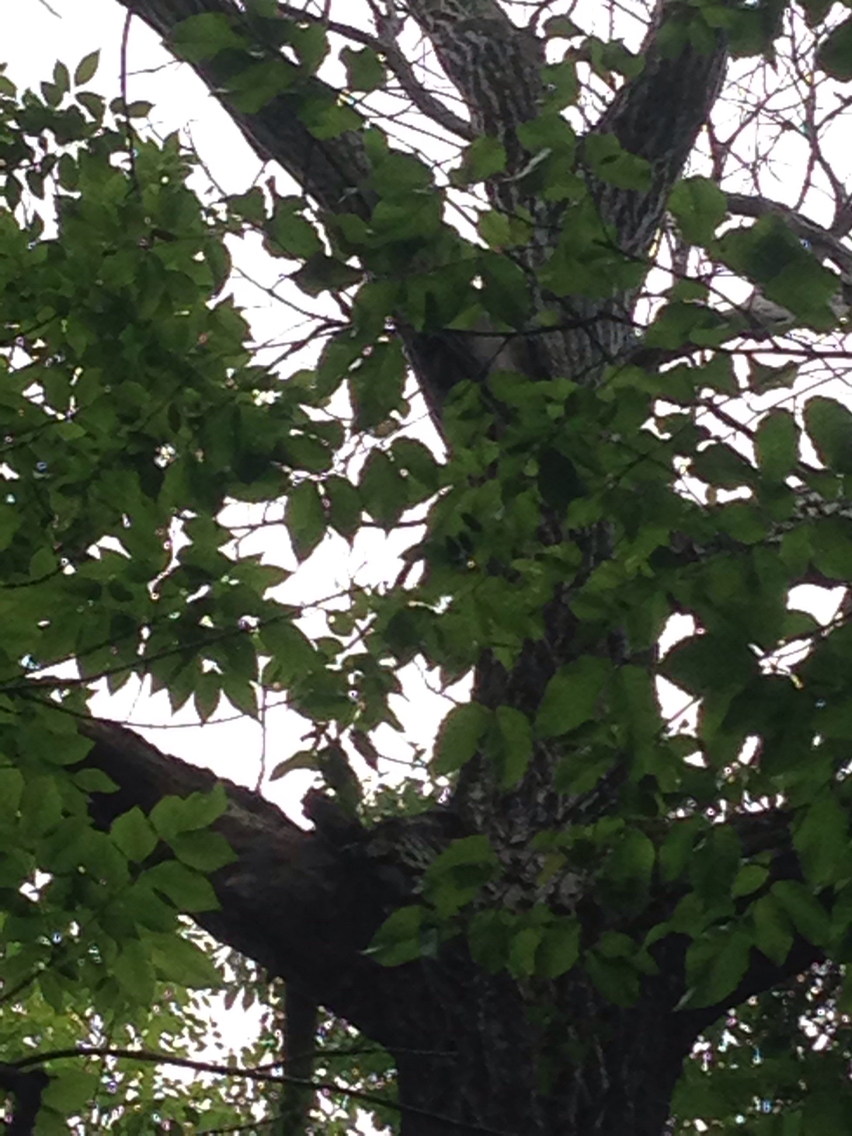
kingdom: Plantae
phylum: Tracheophyta
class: Magnoliopsida
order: Fagales
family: Juglandaceae
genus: Juglans
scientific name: Juglans cinerea
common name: Butternut
